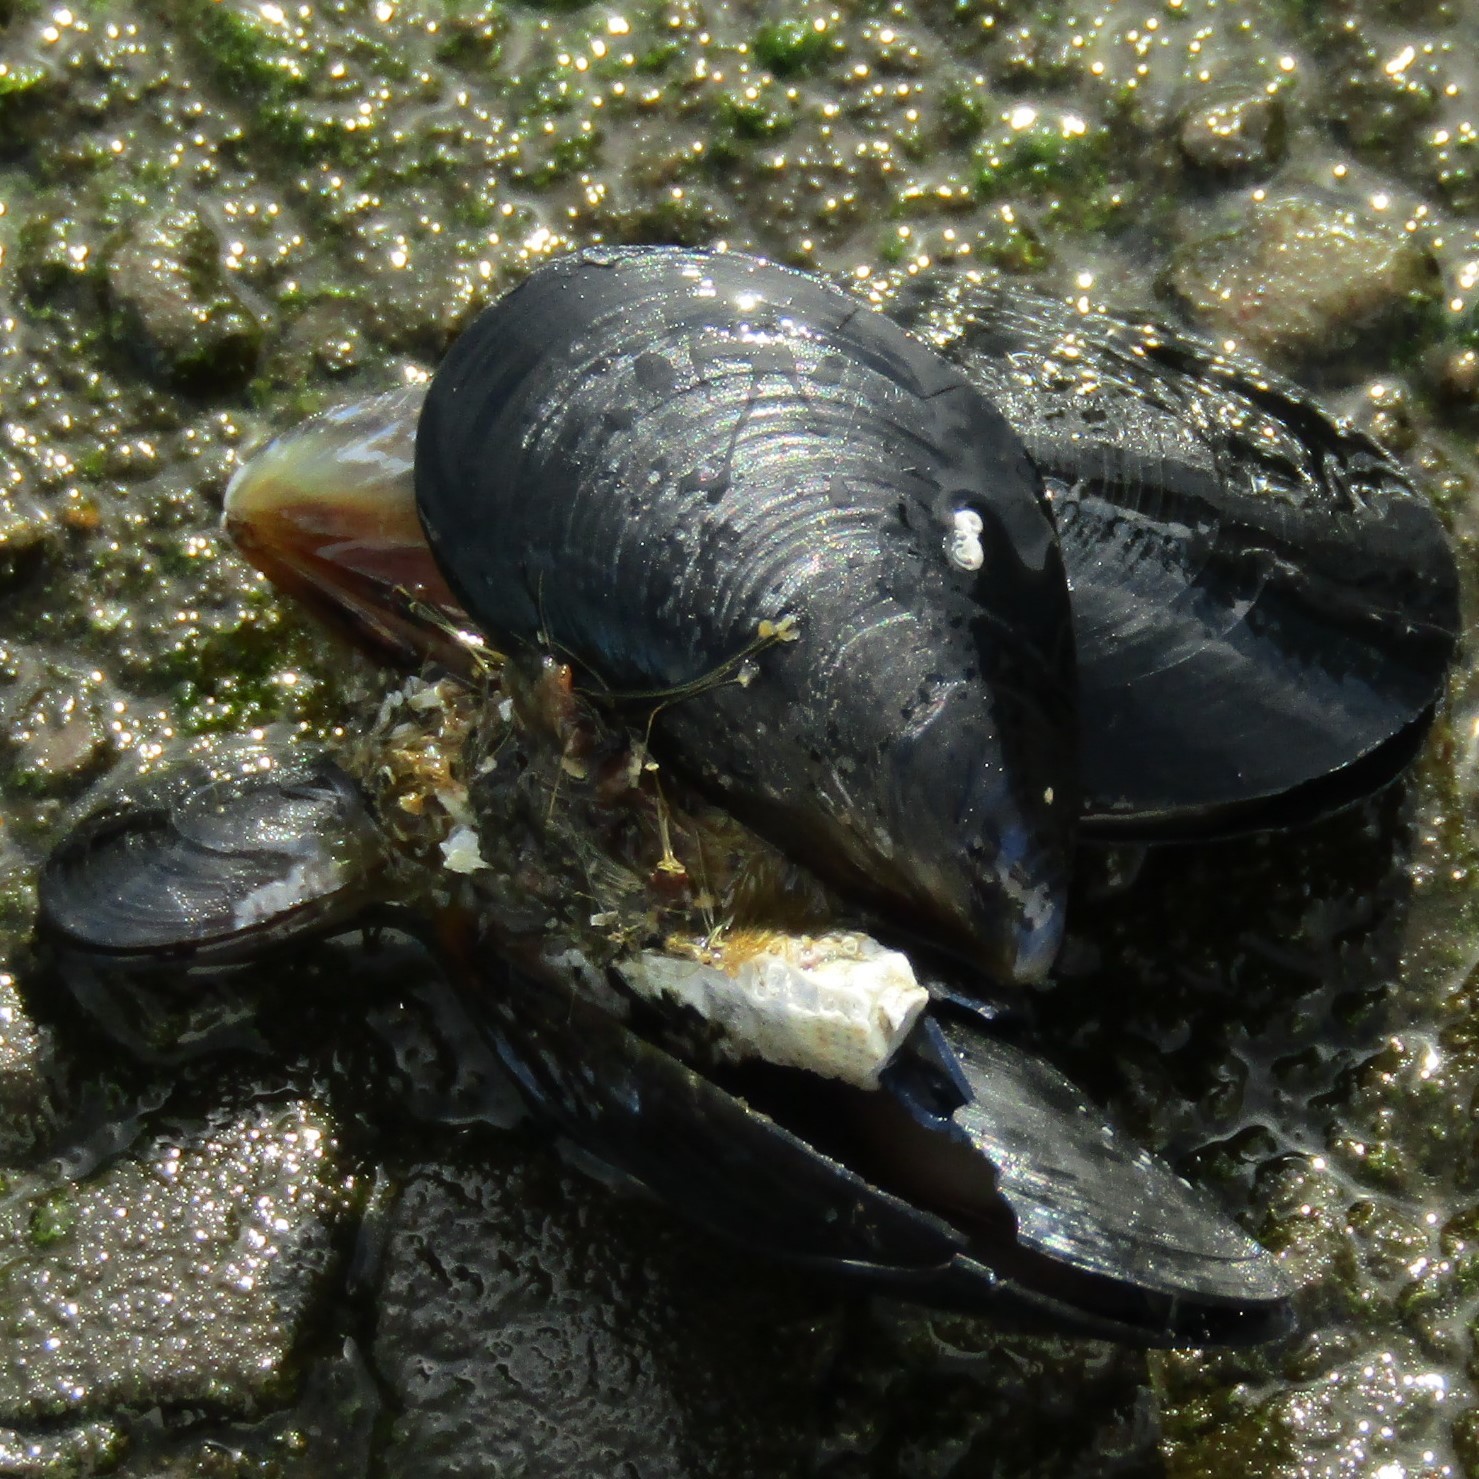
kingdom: Animalia
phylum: Mollusca
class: Bivalvia
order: Mytilida
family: Mytilidae
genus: Mytilus
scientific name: Mytilus planulatus
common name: Australian mussel
